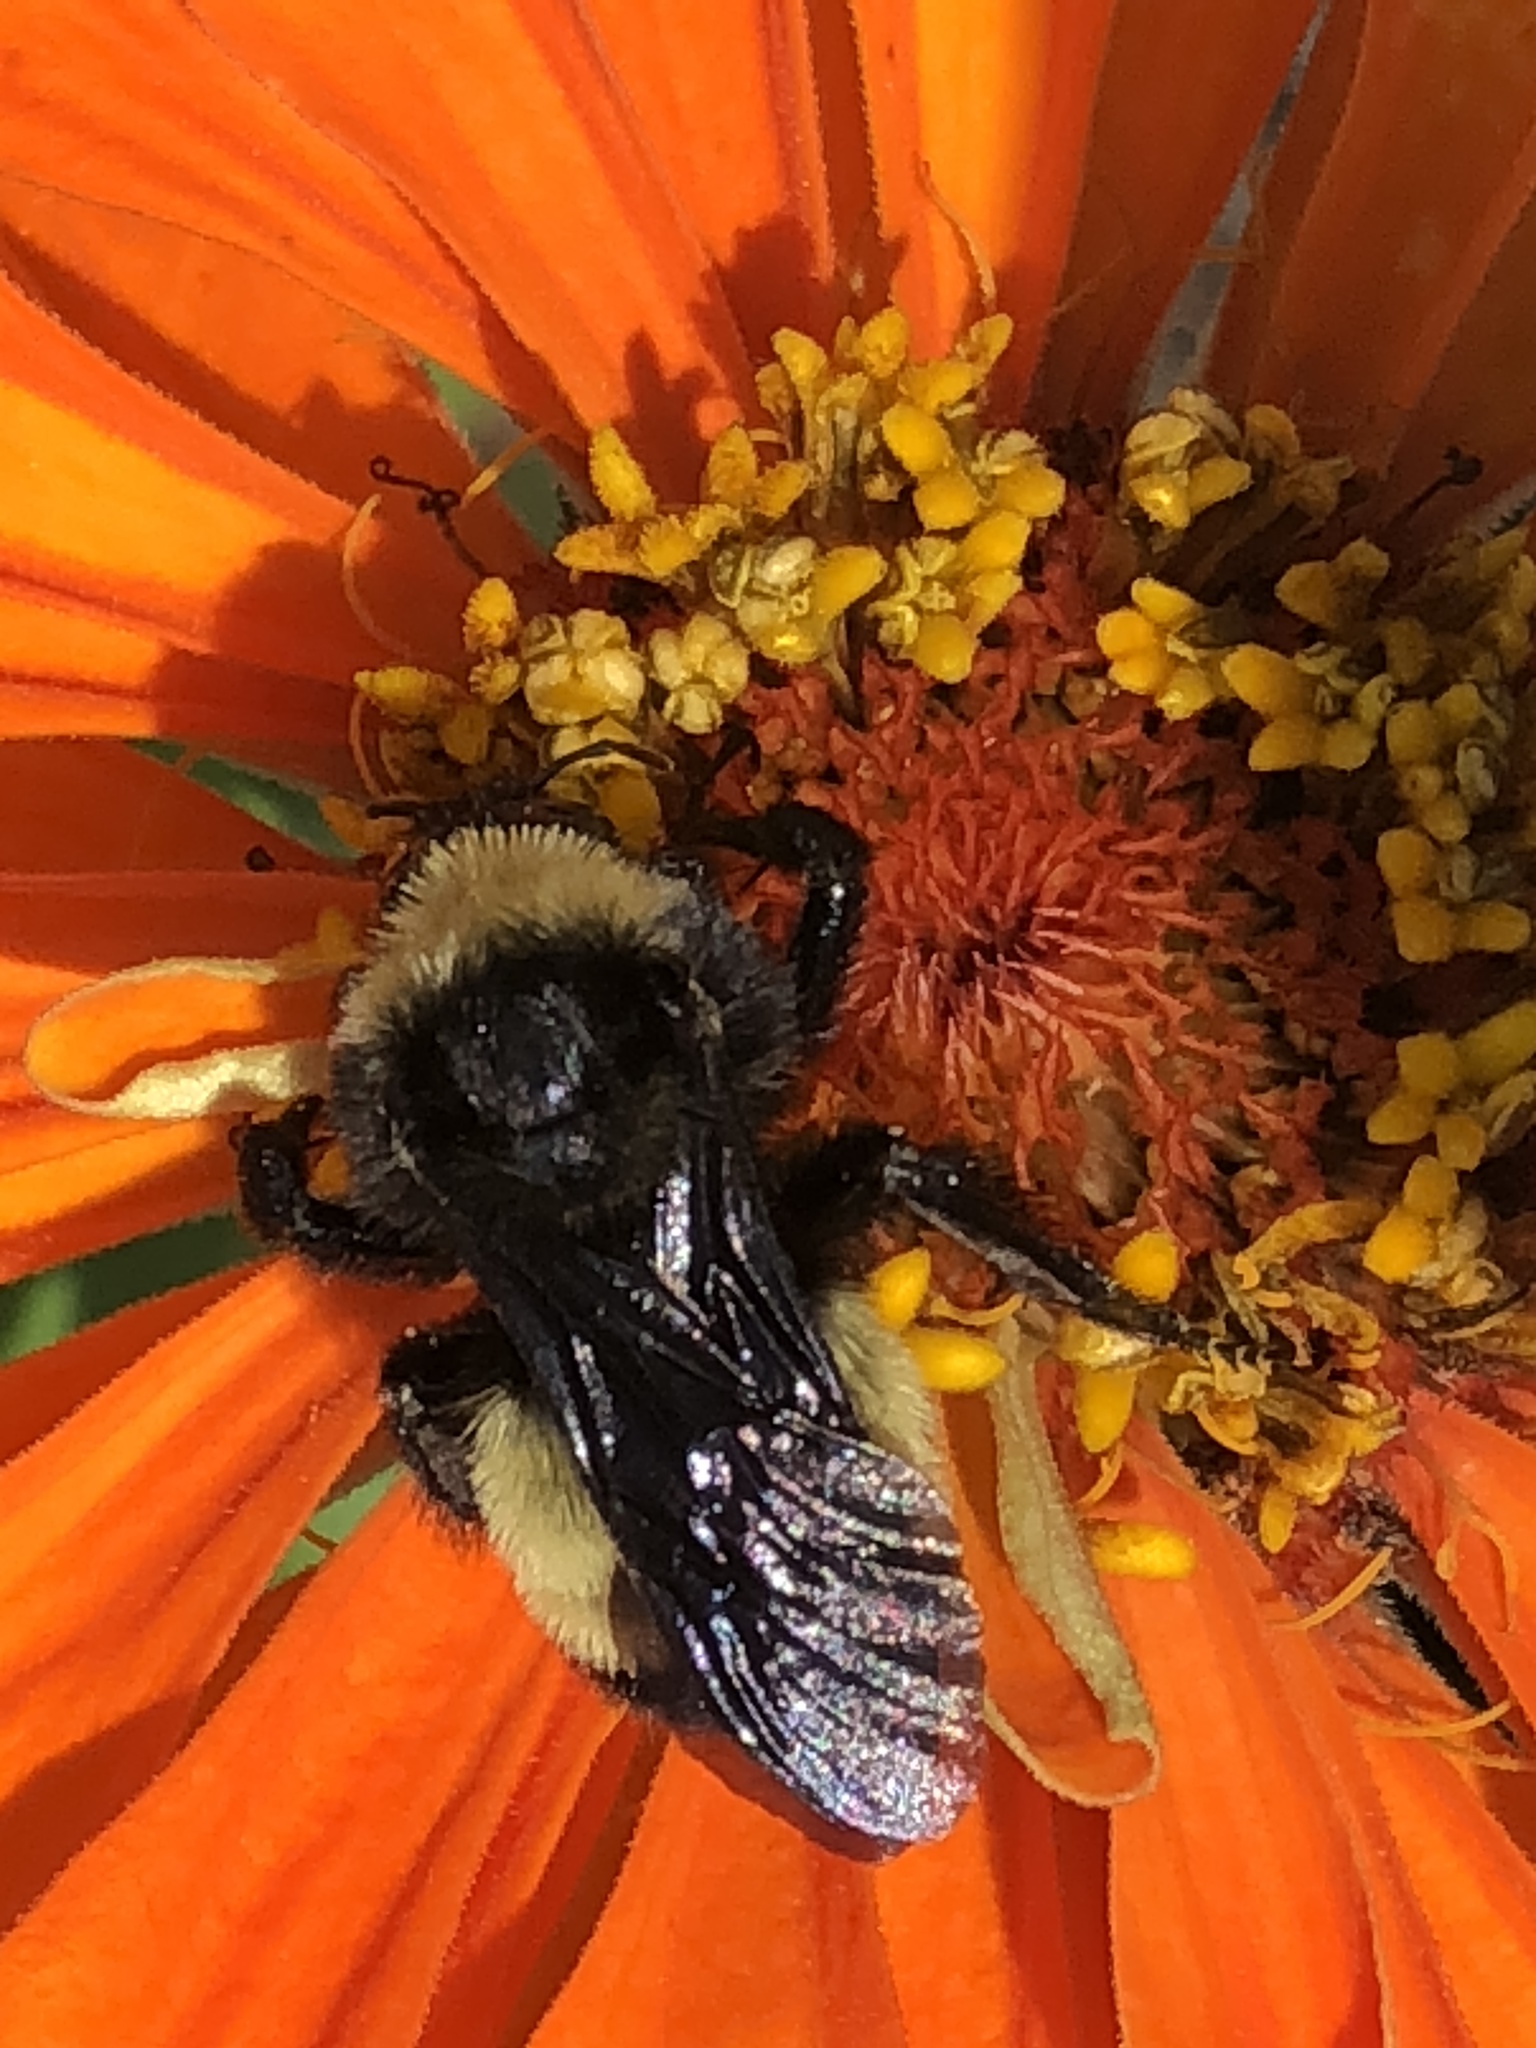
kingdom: Animalia
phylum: Arthropoda
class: Insecta
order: Hymenoptera
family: Apidae
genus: Bombus
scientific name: Bombus pensylvanicus
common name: Bumble bee
